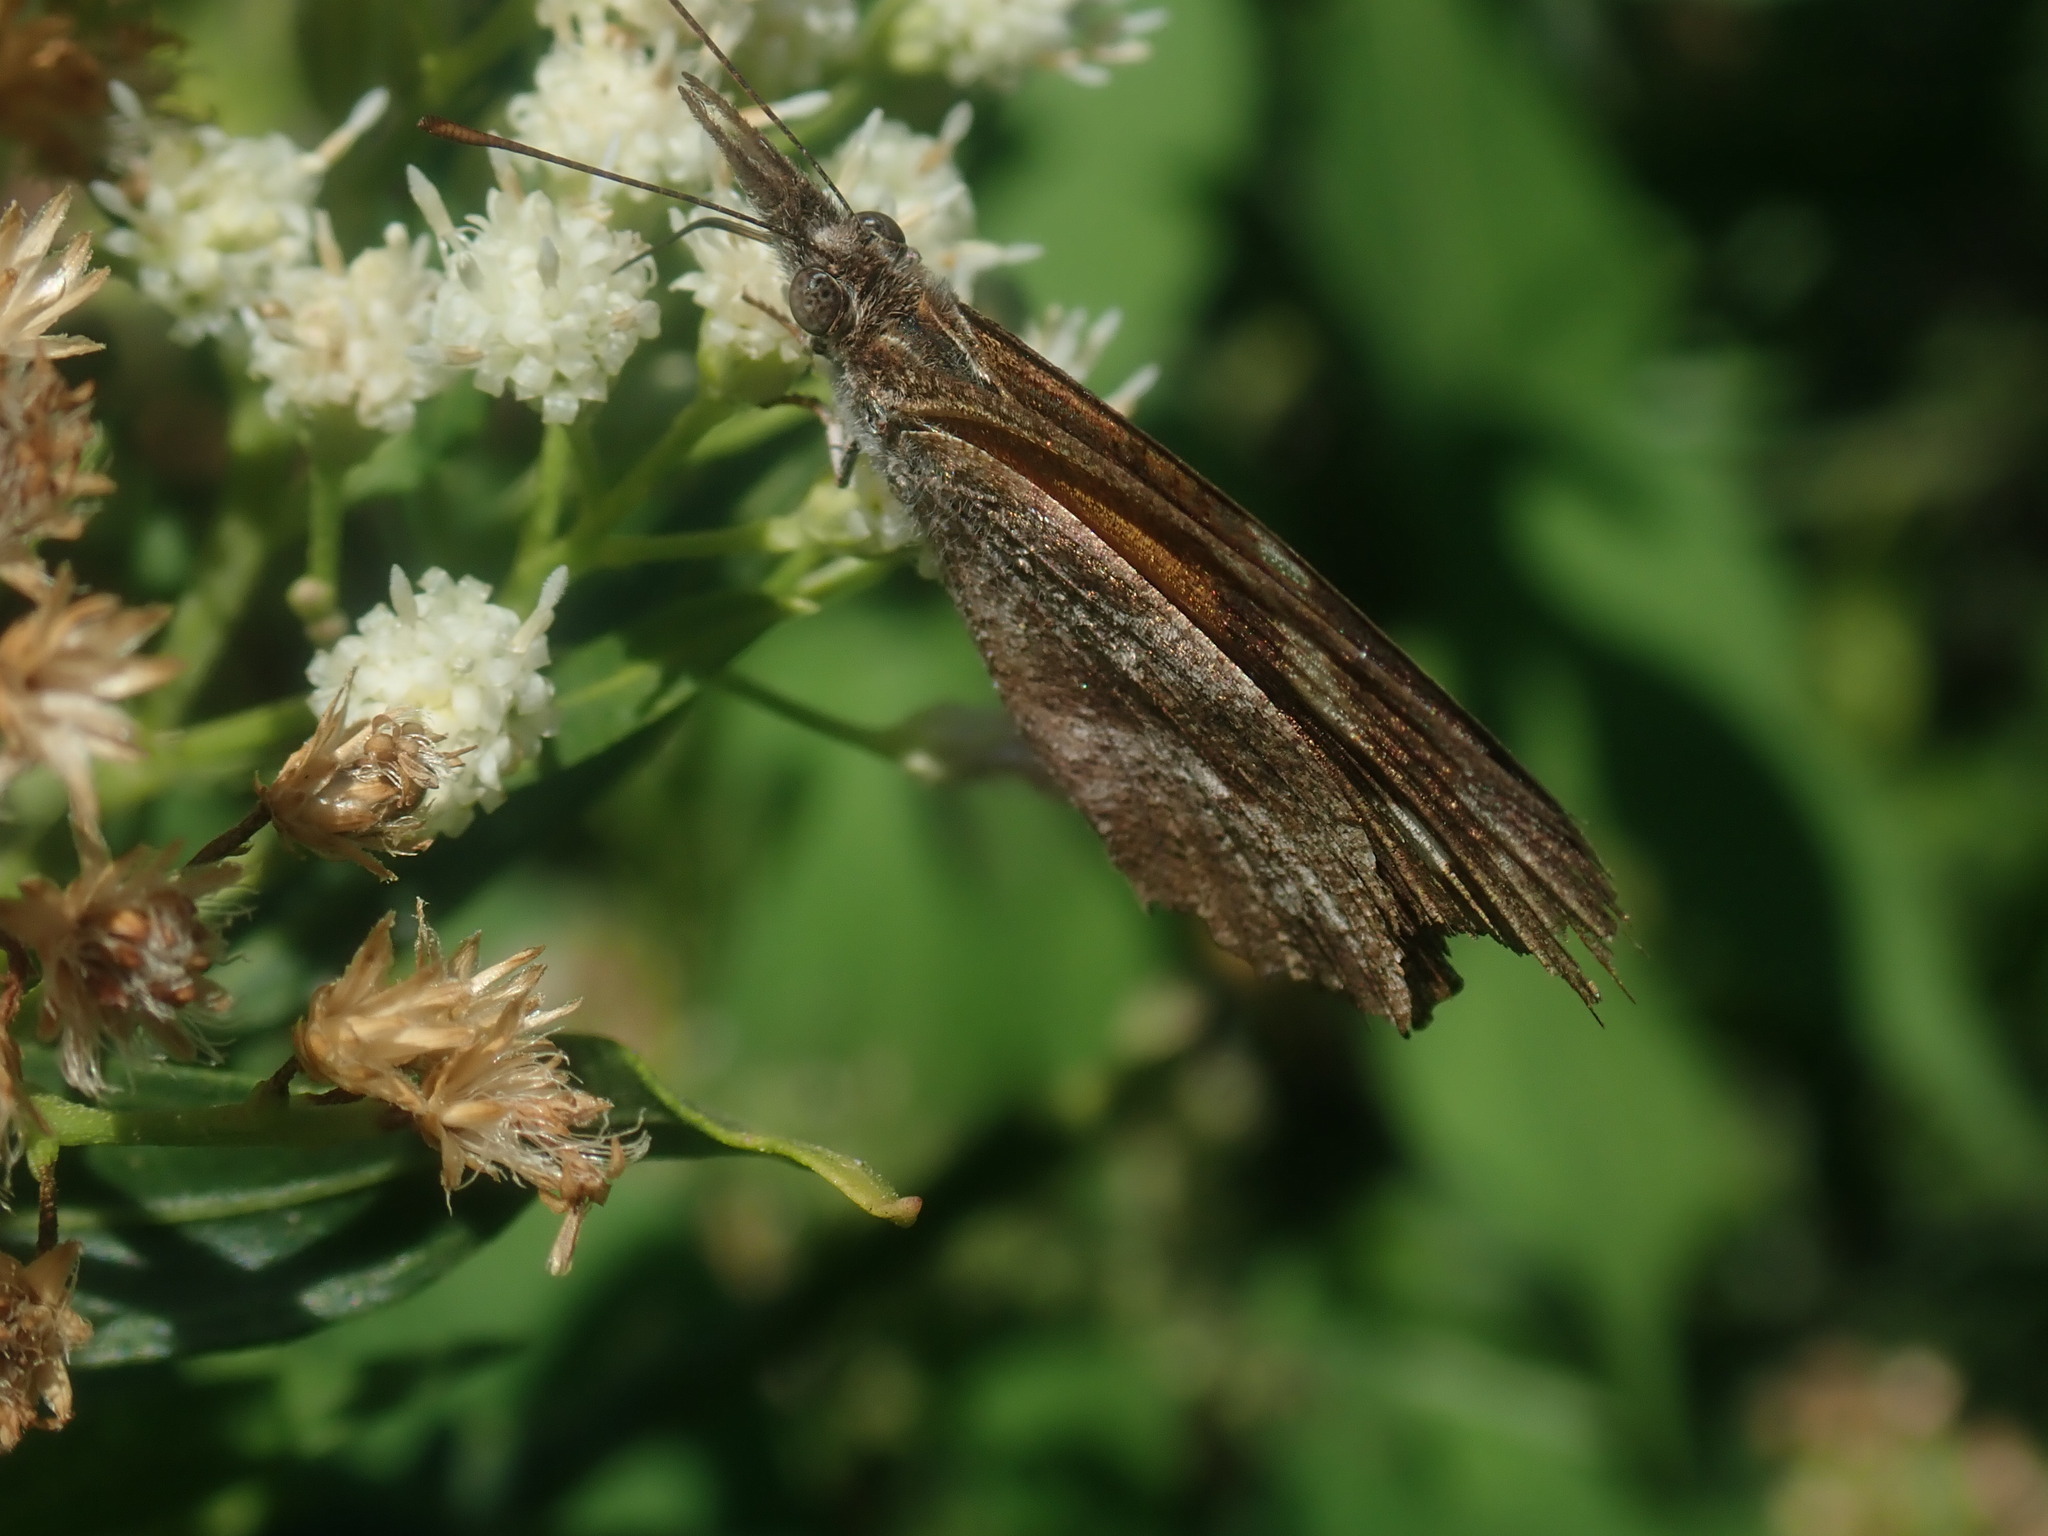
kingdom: Animalia
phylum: Arthropoda
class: Insecta
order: Lepidoptera
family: Nymphalidae
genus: Libytheana
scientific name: Libytheana carinenta
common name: American snout
